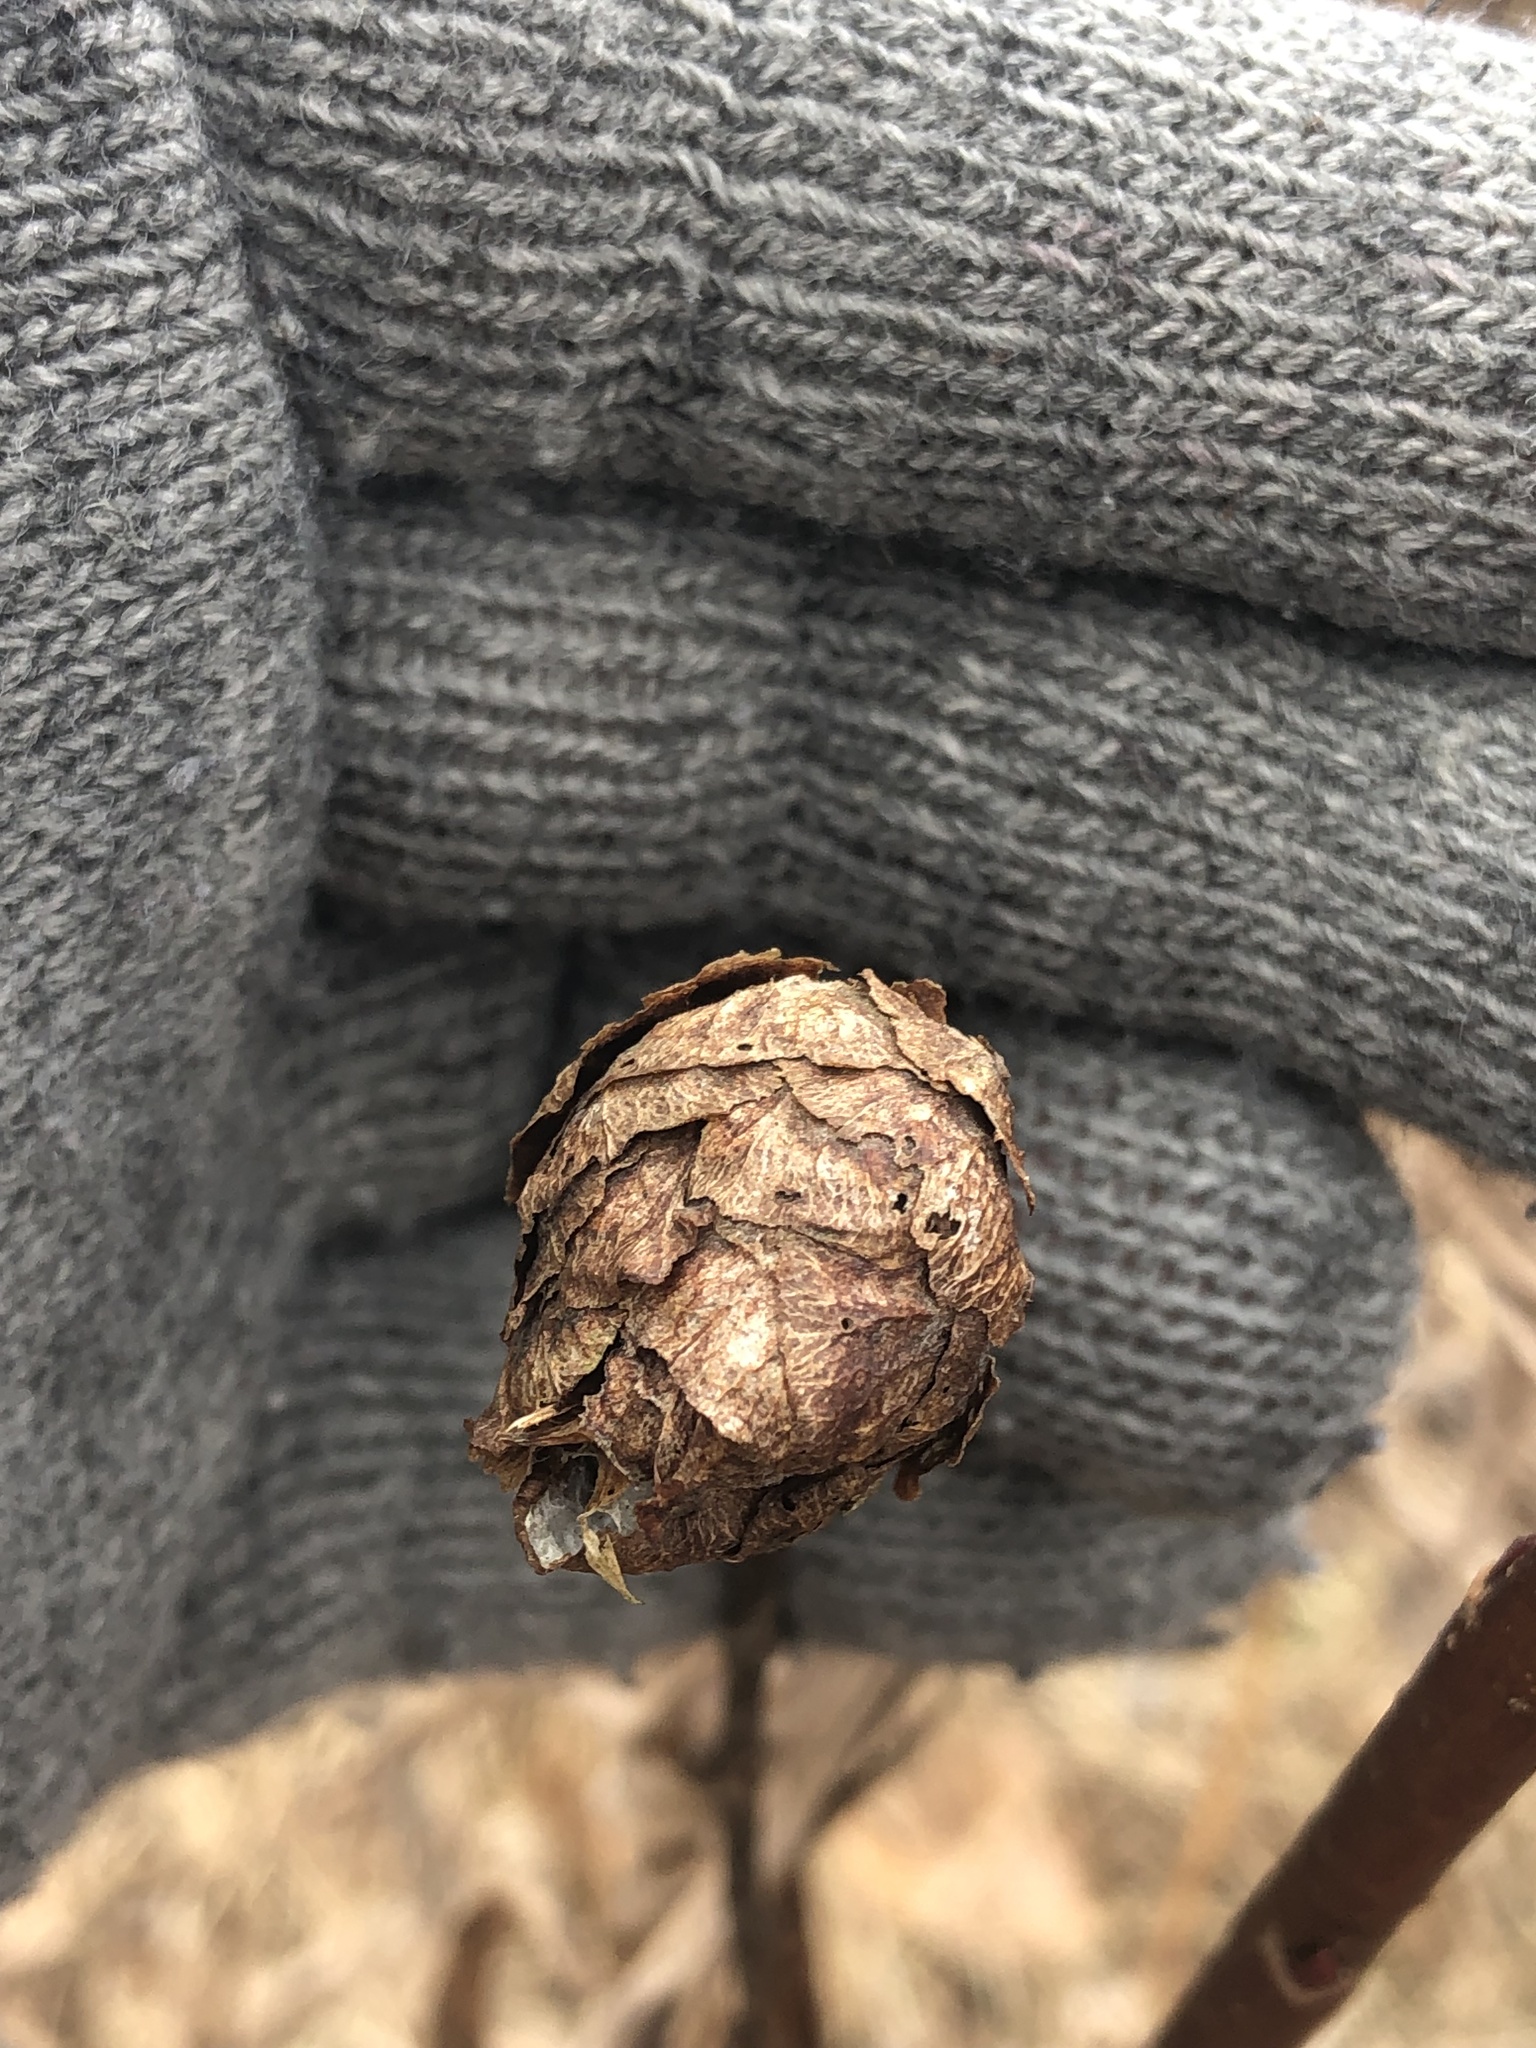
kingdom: Animalia
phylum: Arthropoda
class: Insecta
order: Diptera
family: Cecidomyiidae
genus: Rabdophaga
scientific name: Rabdophaga strobiloides
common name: Willow pinecone gall midge
